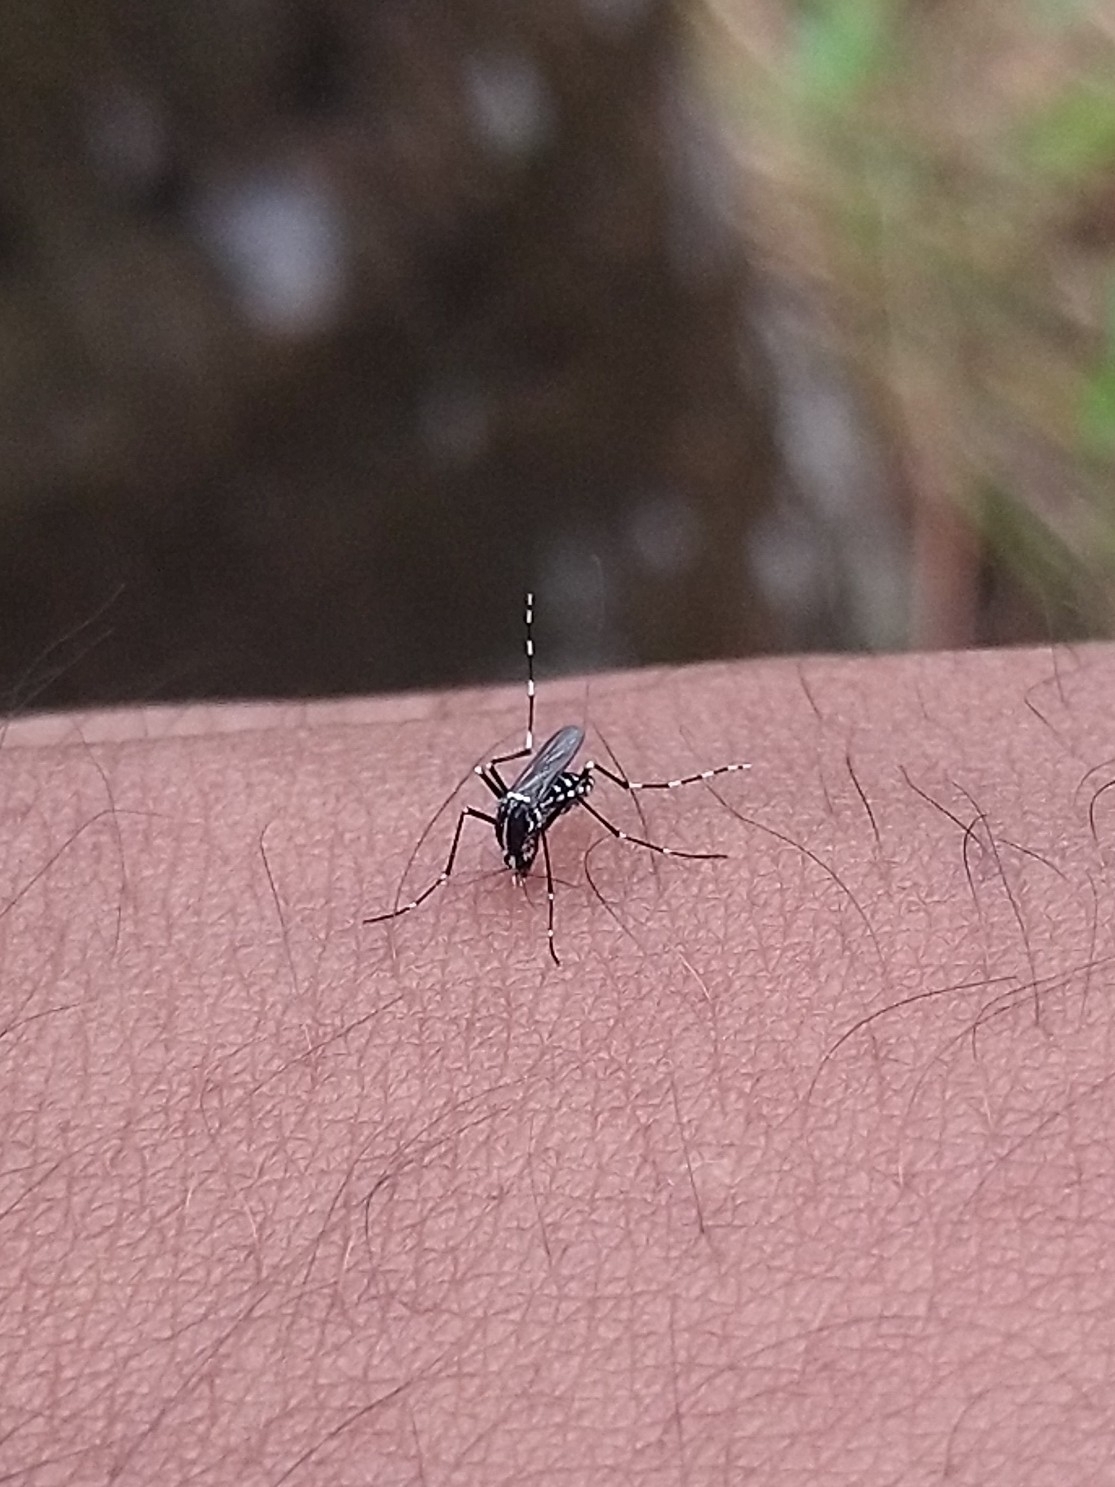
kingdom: Animalia
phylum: Arthropoda
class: Insecta
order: Diptera
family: Culicidae
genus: Aedes
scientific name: Aedes albopictus
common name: Tiger mosquito
